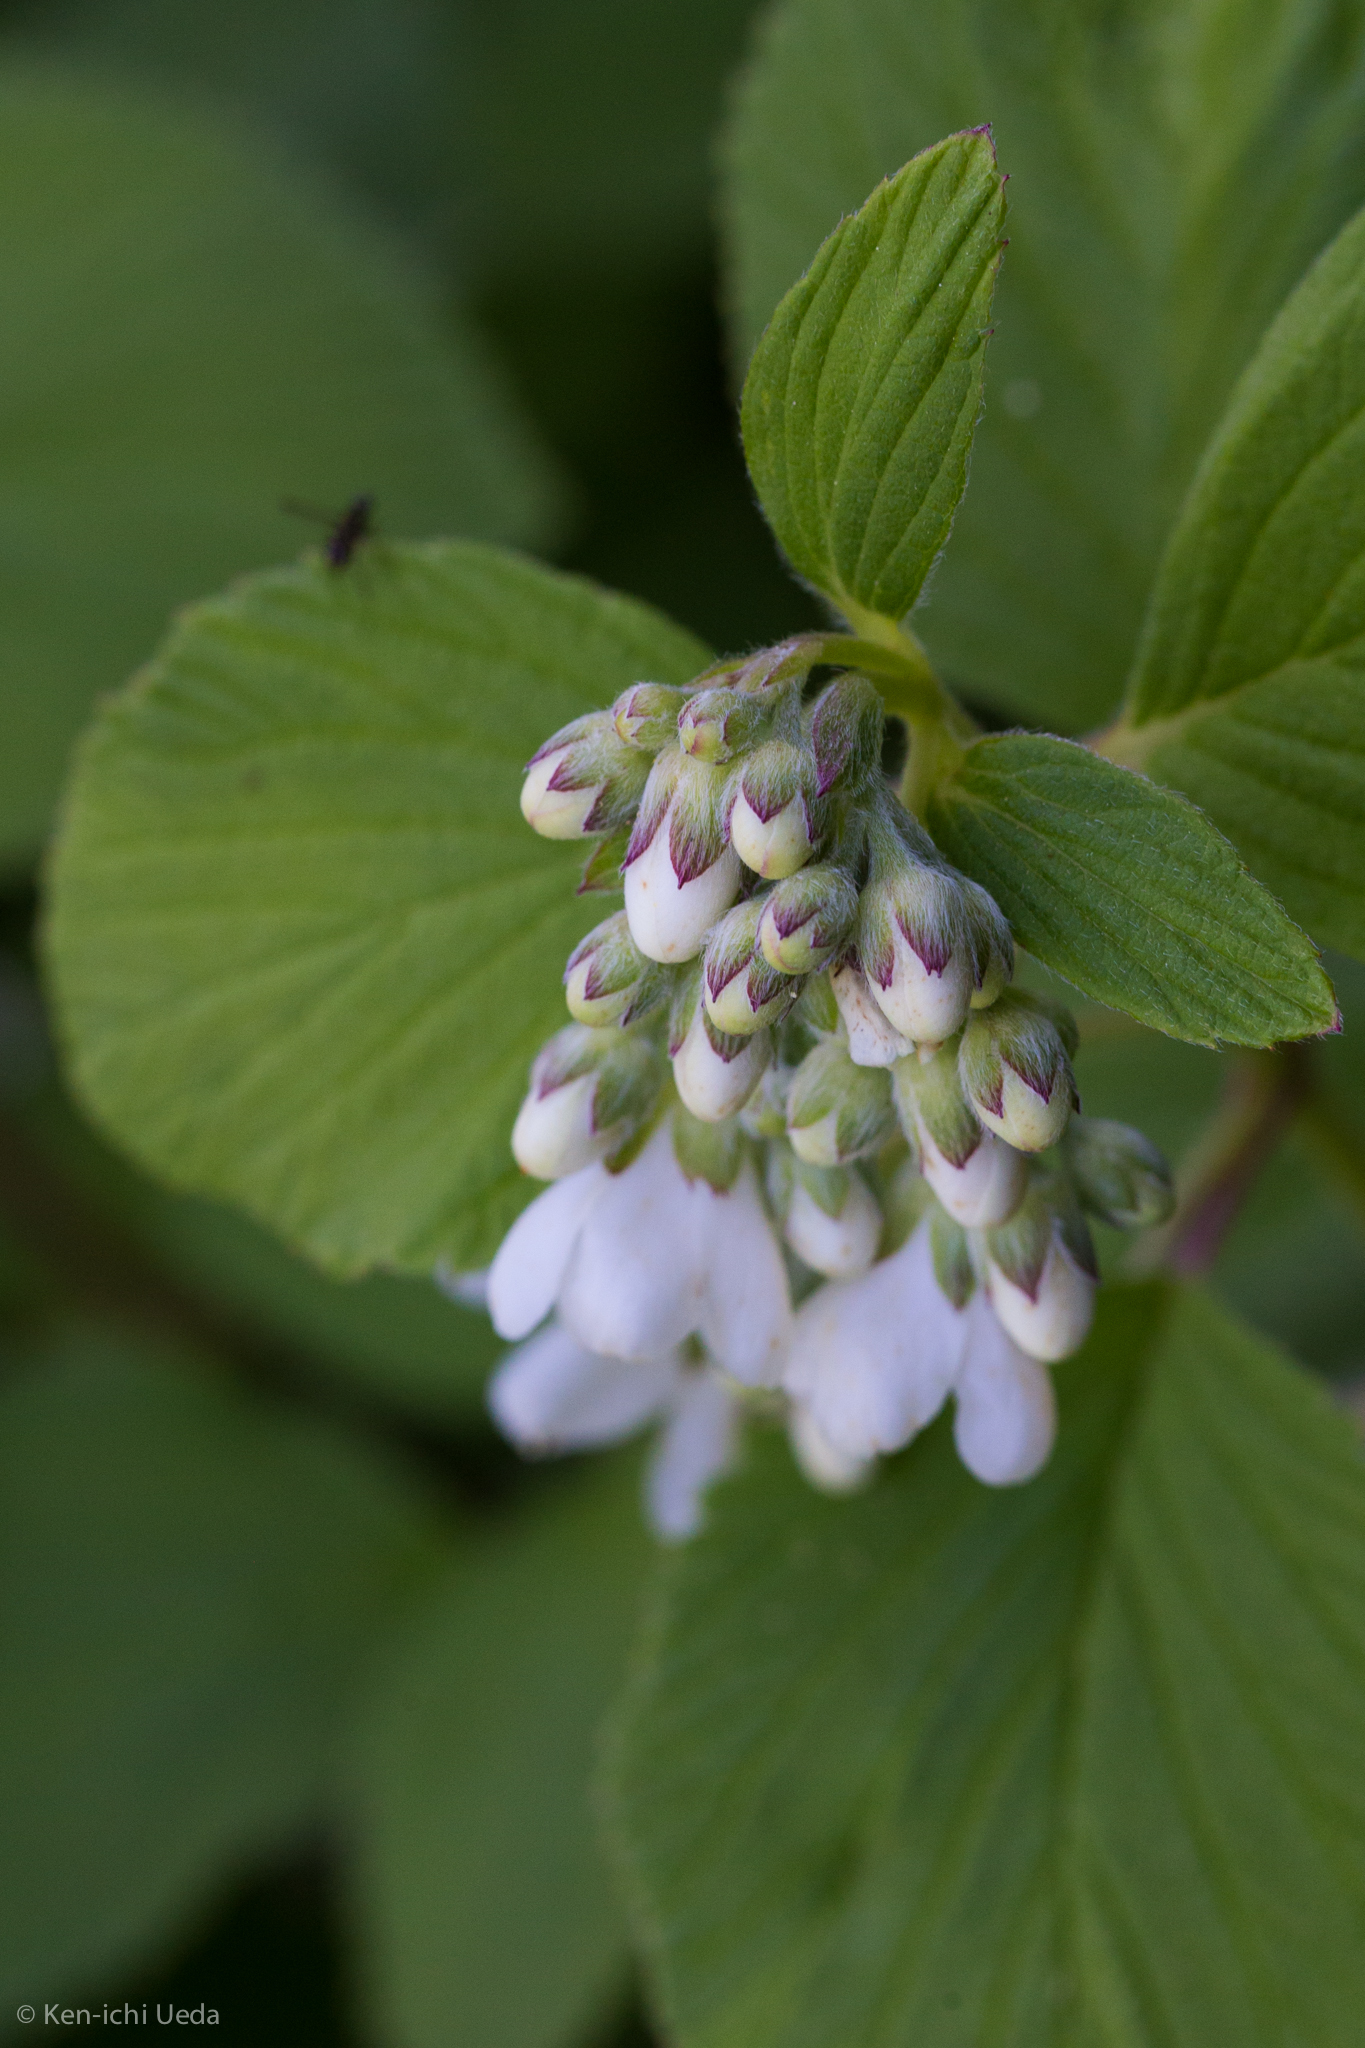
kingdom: Plantae
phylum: Tracheophyta
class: Magnoliopsida
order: Cornales
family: Hydrangeaceae
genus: Jamesia
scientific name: Jamesia americana
